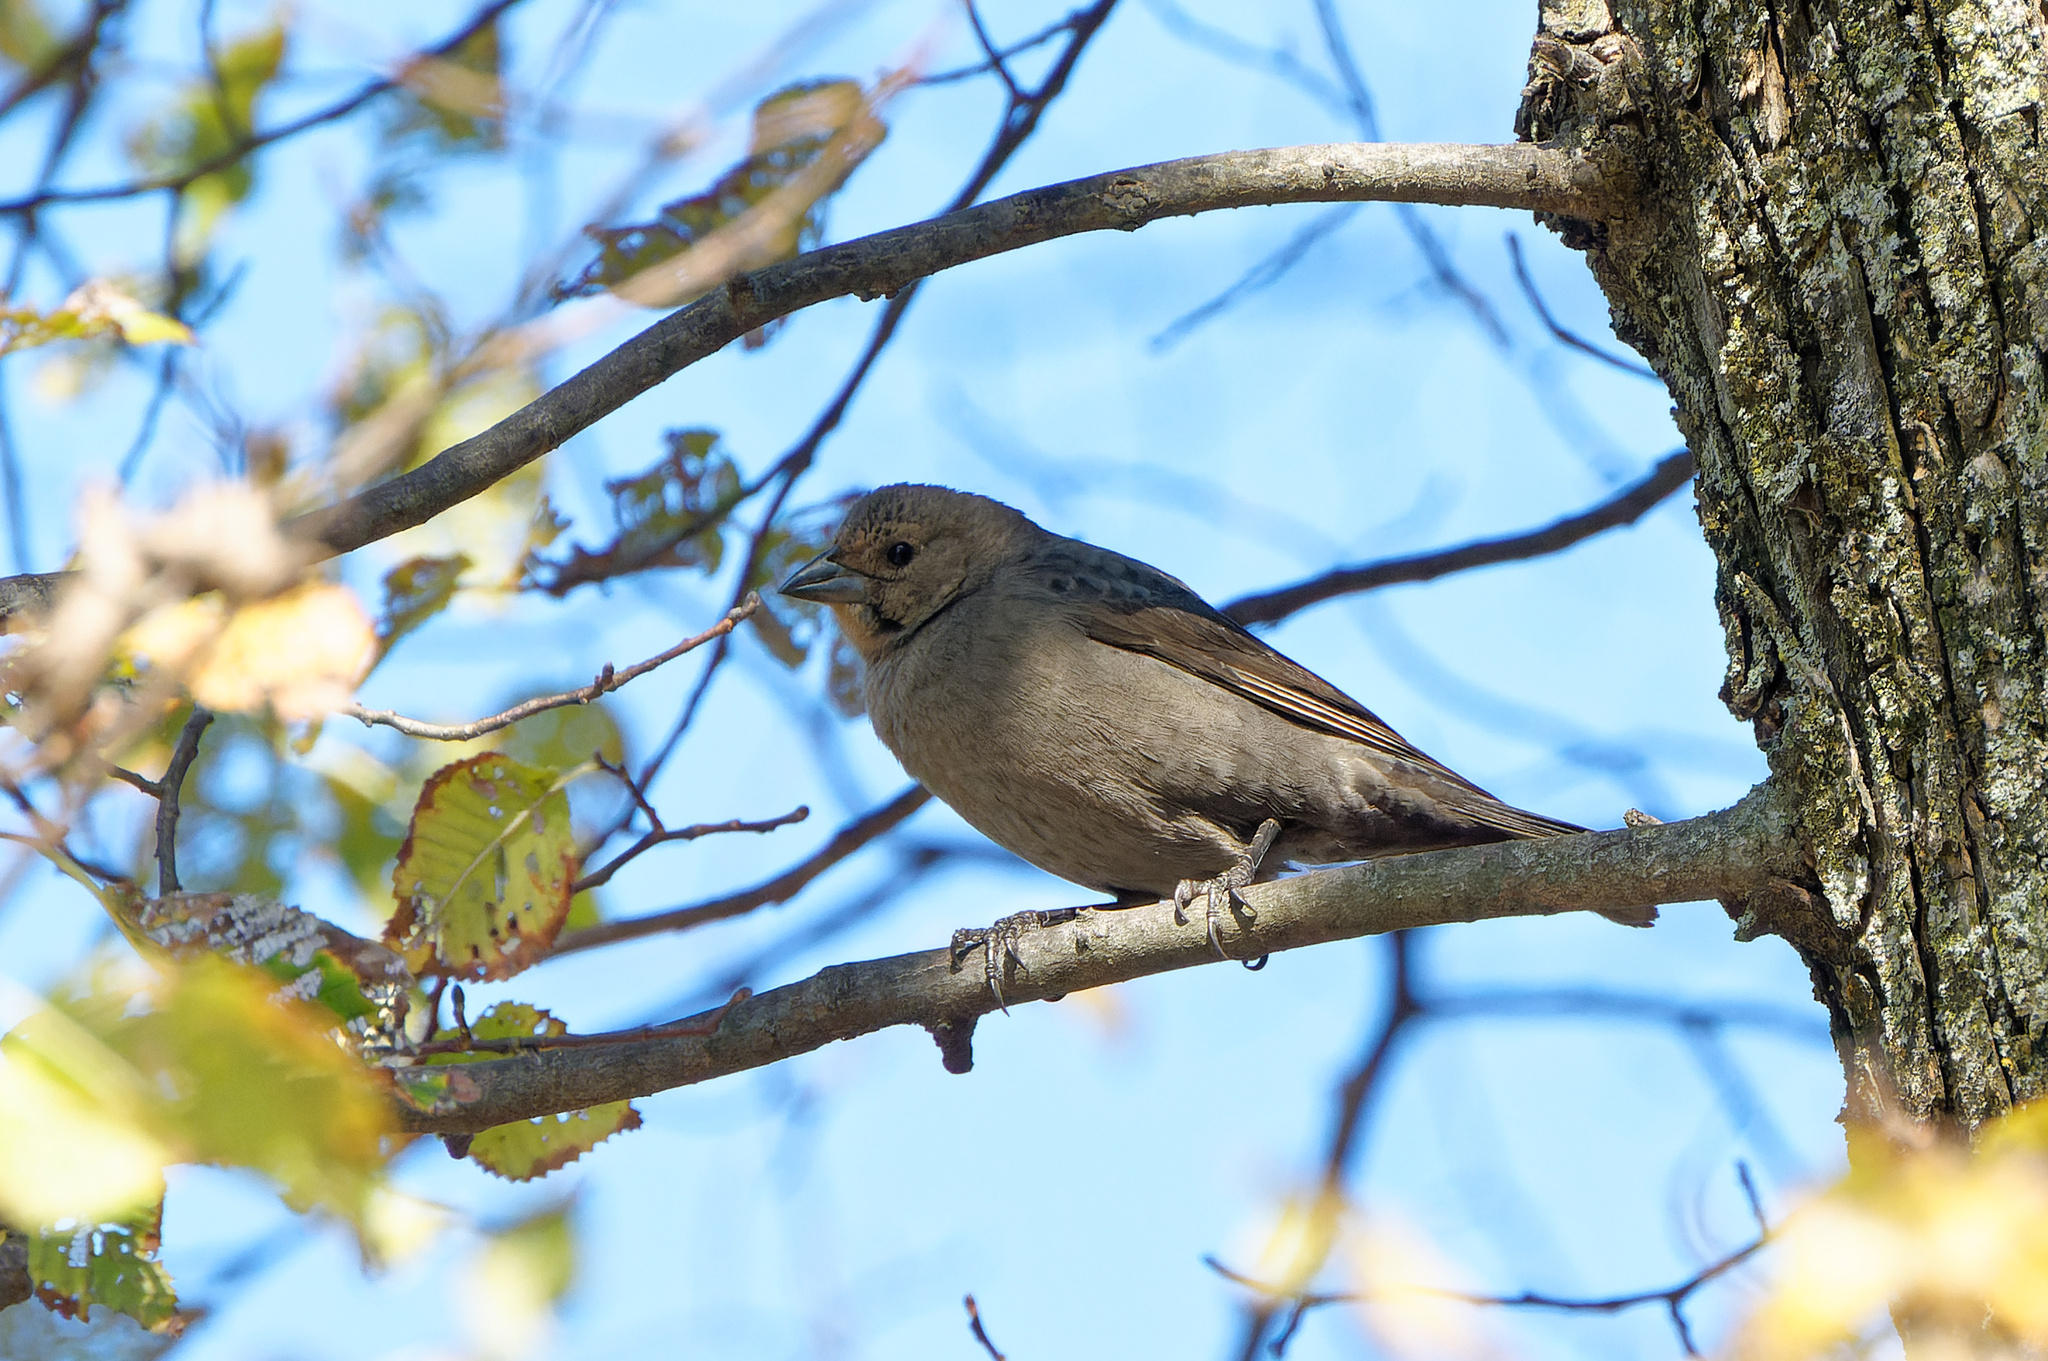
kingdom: Animalia
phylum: Chordata
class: Aves
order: Passeriformes
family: Icteridae
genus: Molothrus
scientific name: Molothrus ater
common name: Brown-headed cowbird
